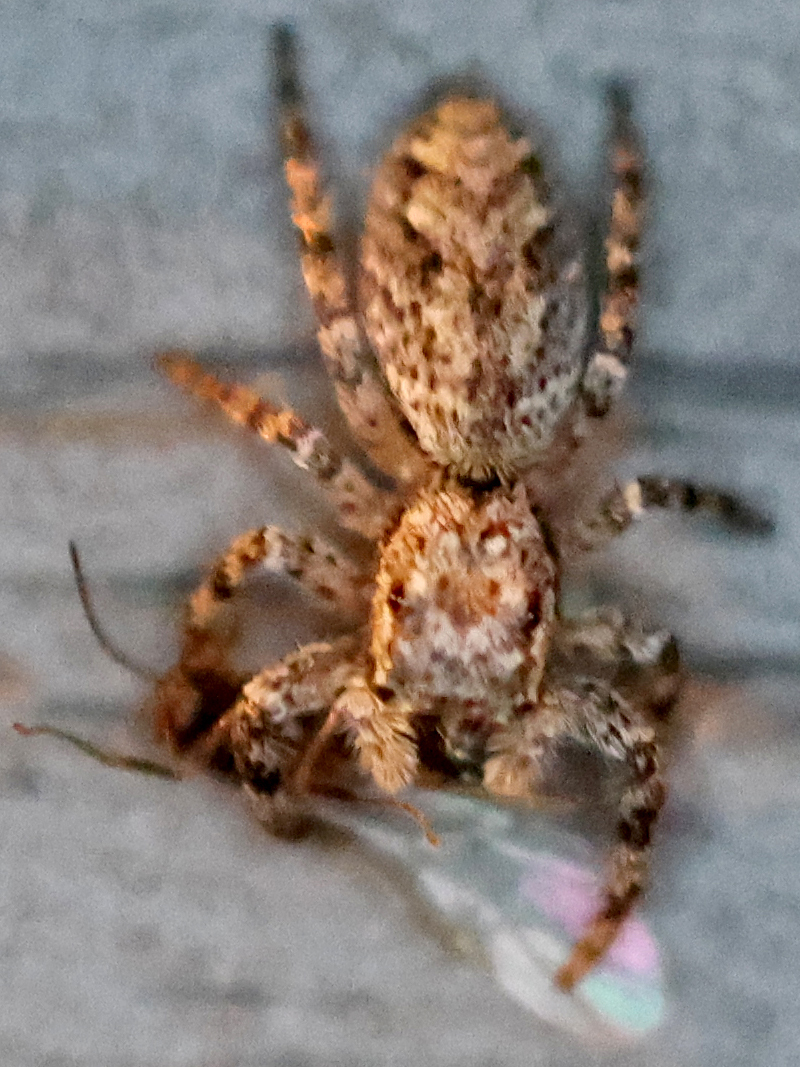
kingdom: Animalia
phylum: Arthropoda
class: Arachnida
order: Araneae
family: Salticidae
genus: Platycryptus
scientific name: Platycryptus undatus
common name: Tan jumping spider
